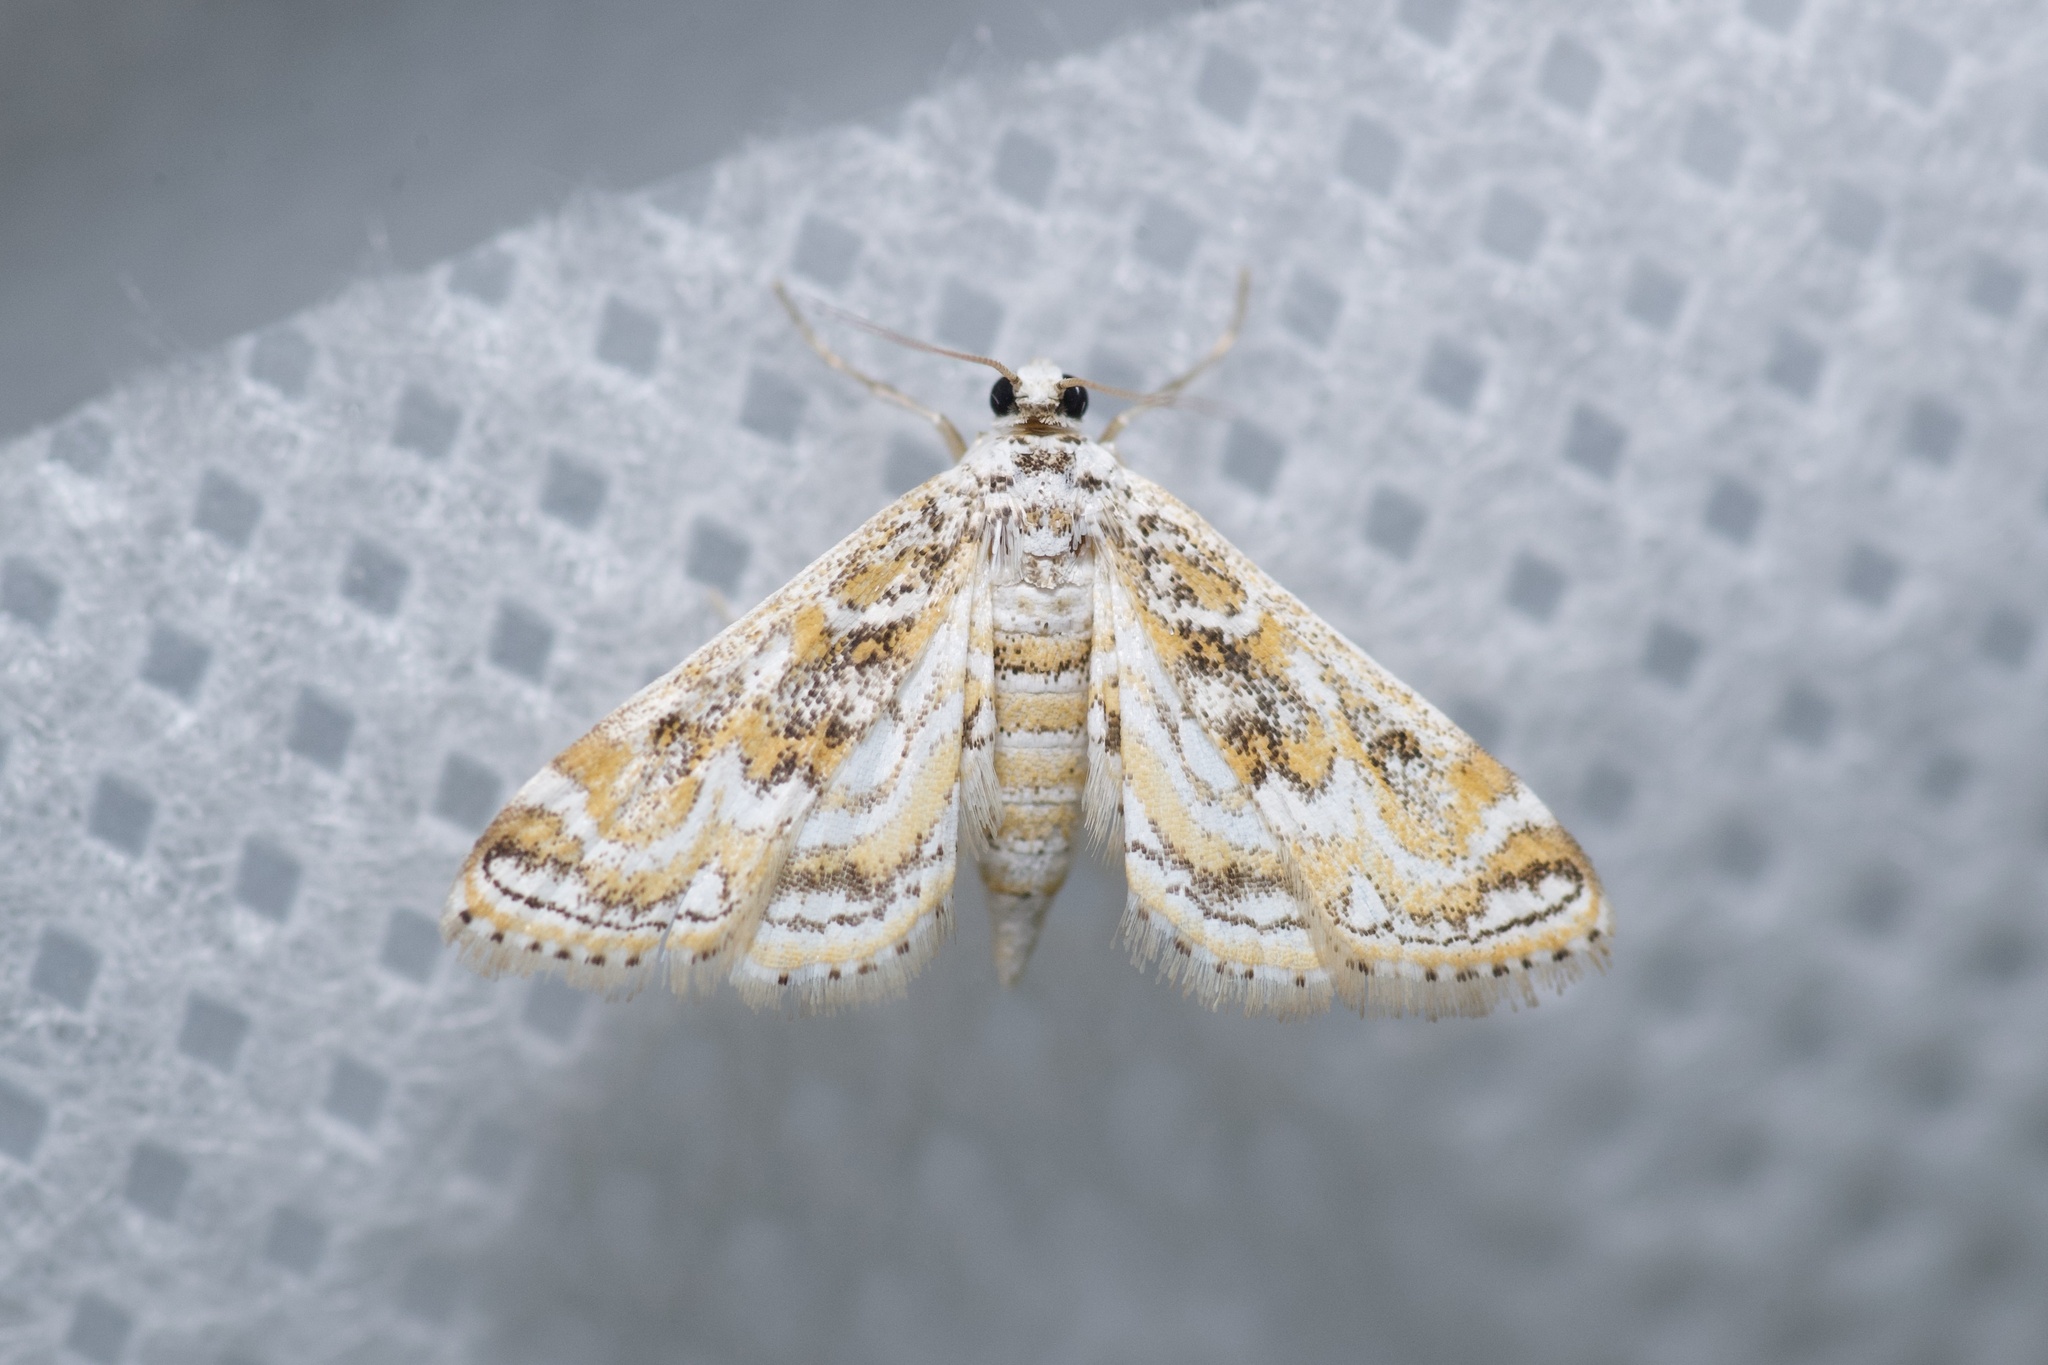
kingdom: Animalia
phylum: Arthropoda
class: Insecta
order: Lepidoptera
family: Crambidae
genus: Parapoynx
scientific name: Parapoynx diminutalis
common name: Hydrilla leafcutter
